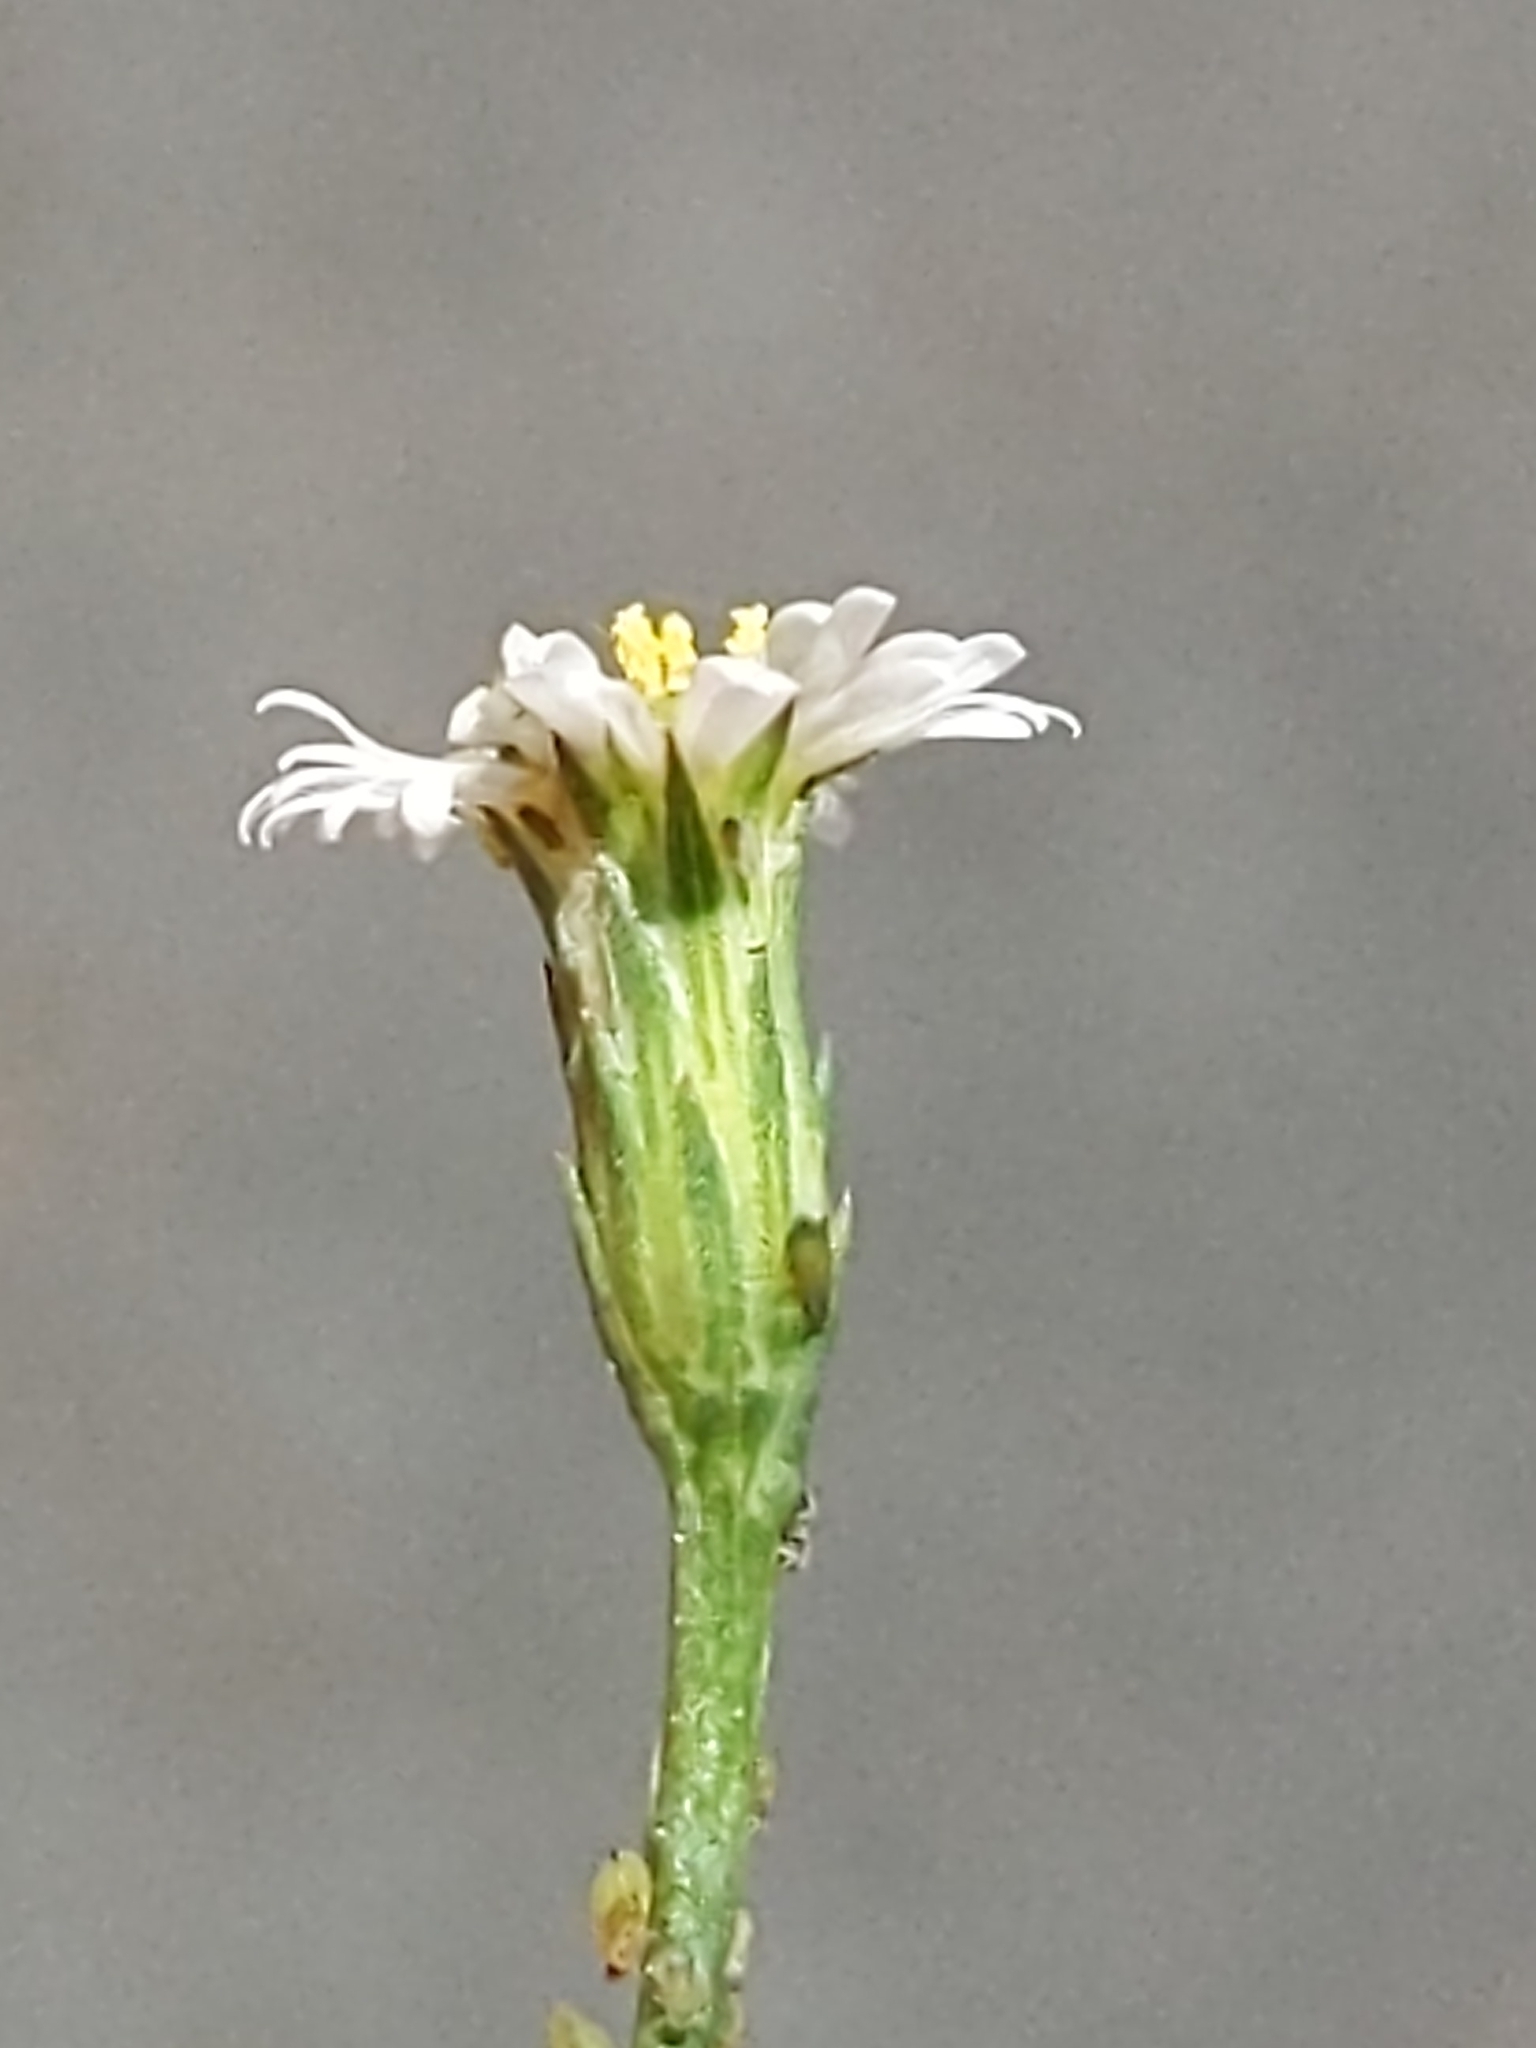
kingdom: Plantae
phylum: Tracheophyta
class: Magnoliopsida
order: Asterales
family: Asteraceae
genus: Symphyotrichum
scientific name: Symphyotrichum subulatum
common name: Annual saltmarsh aster
